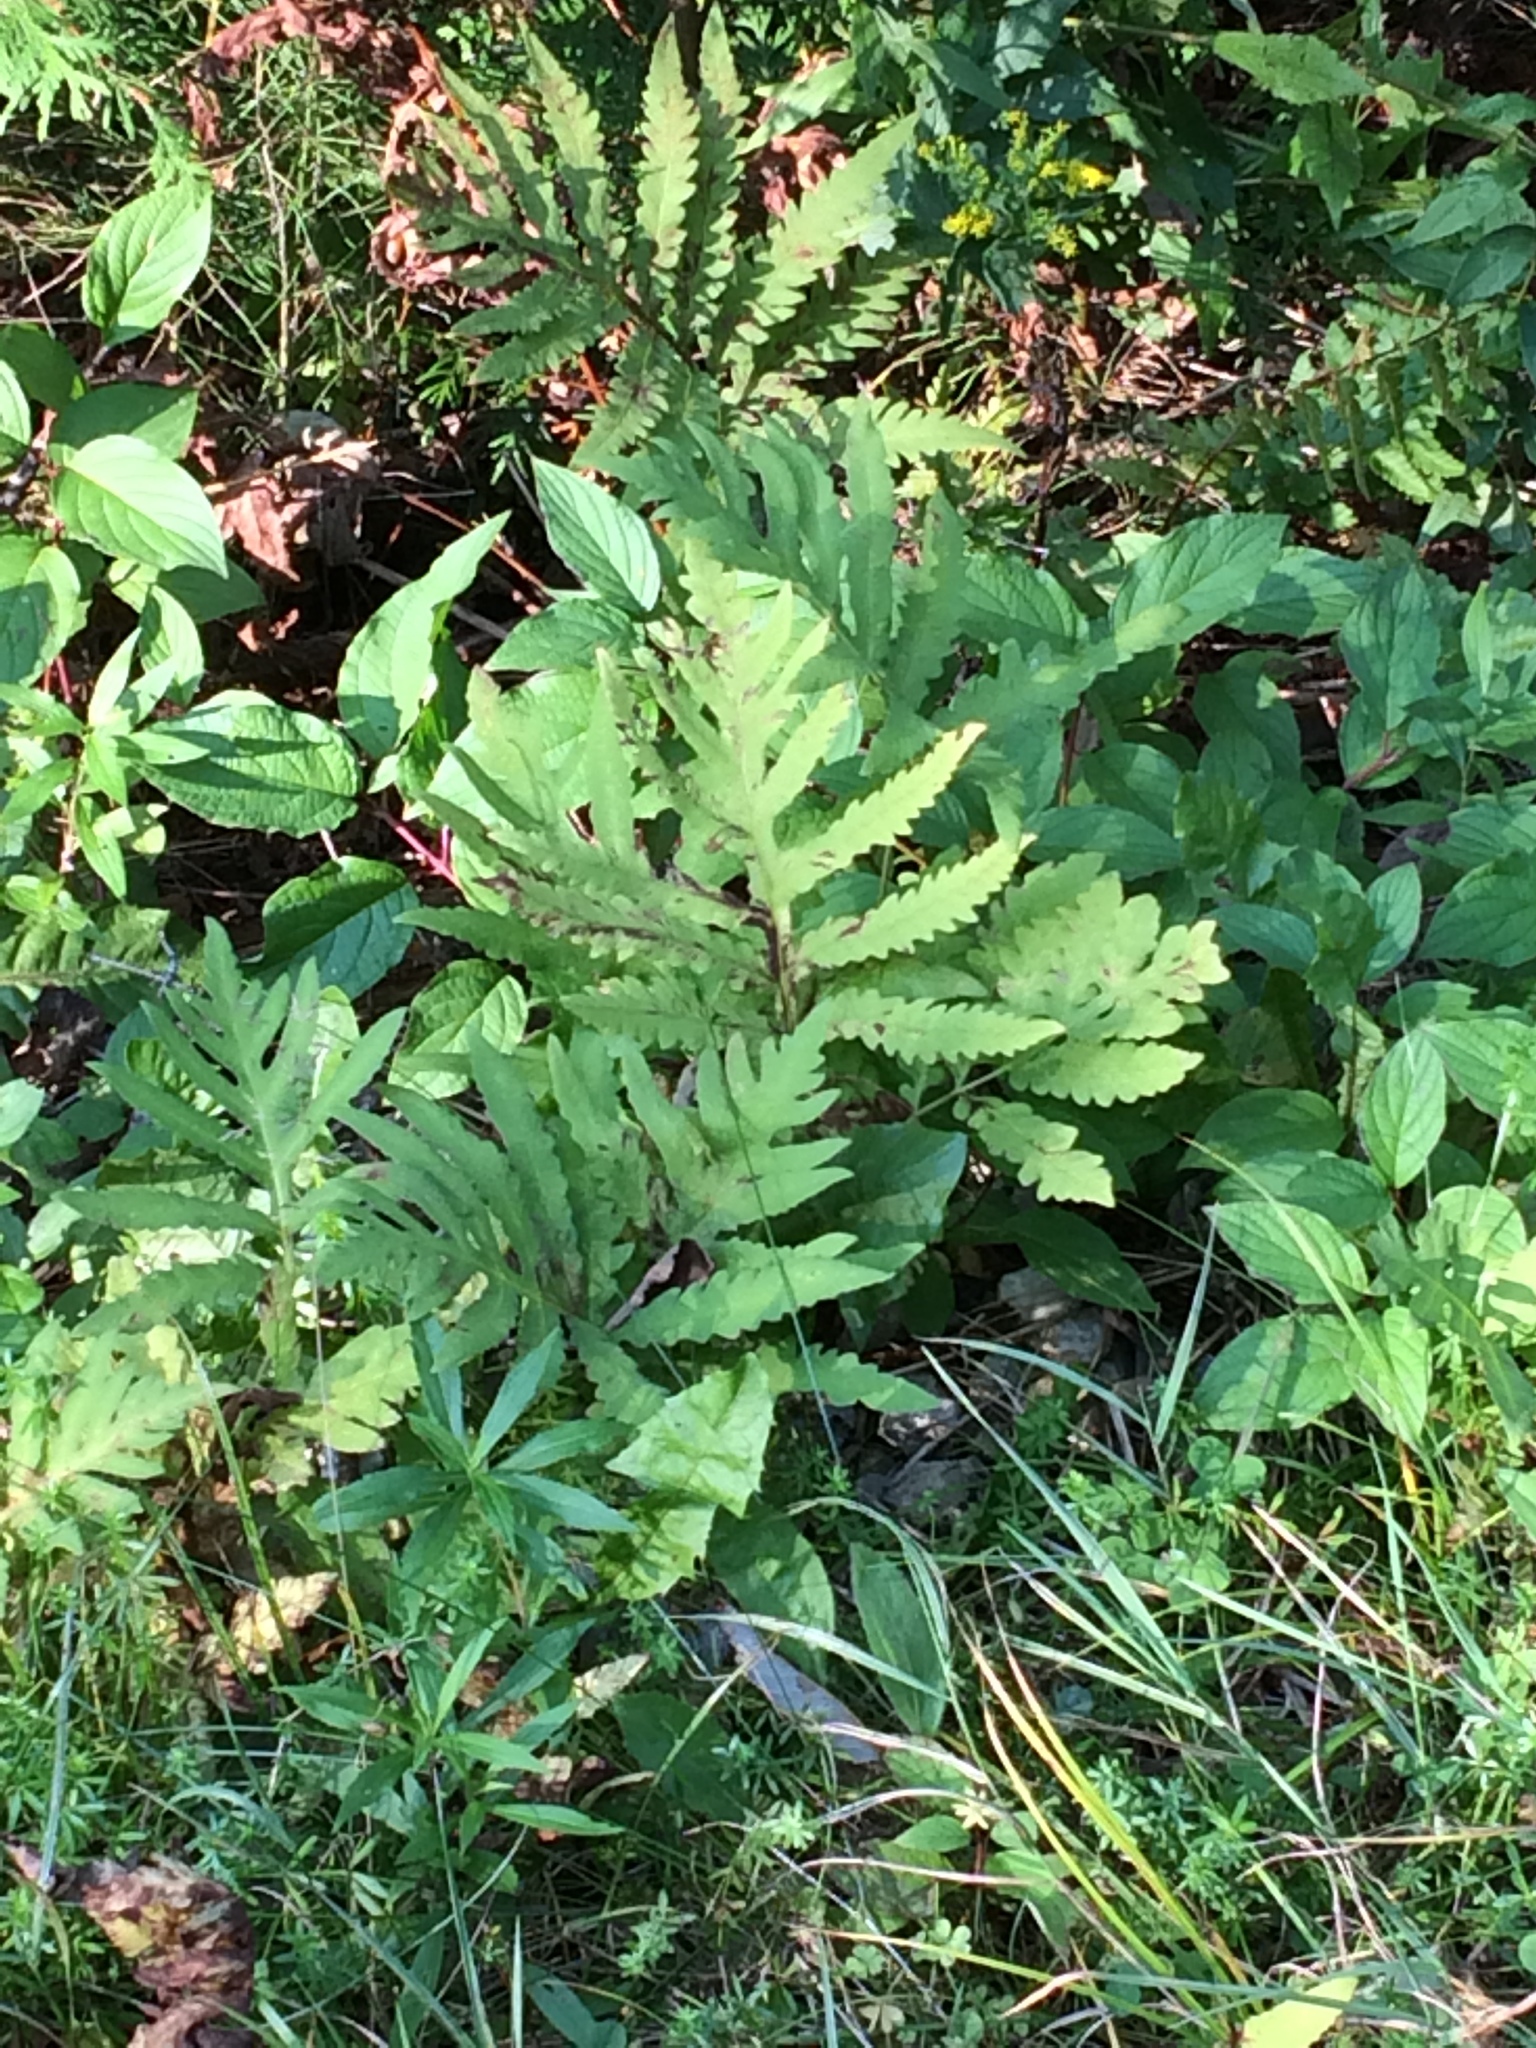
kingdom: Plantae
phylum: Tracheophyta
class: Polypodiopsida
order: Polypodiales
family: Onocleaceae
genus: Onoclea
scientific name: Onoclea sensibilis
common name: Sensitive fern
